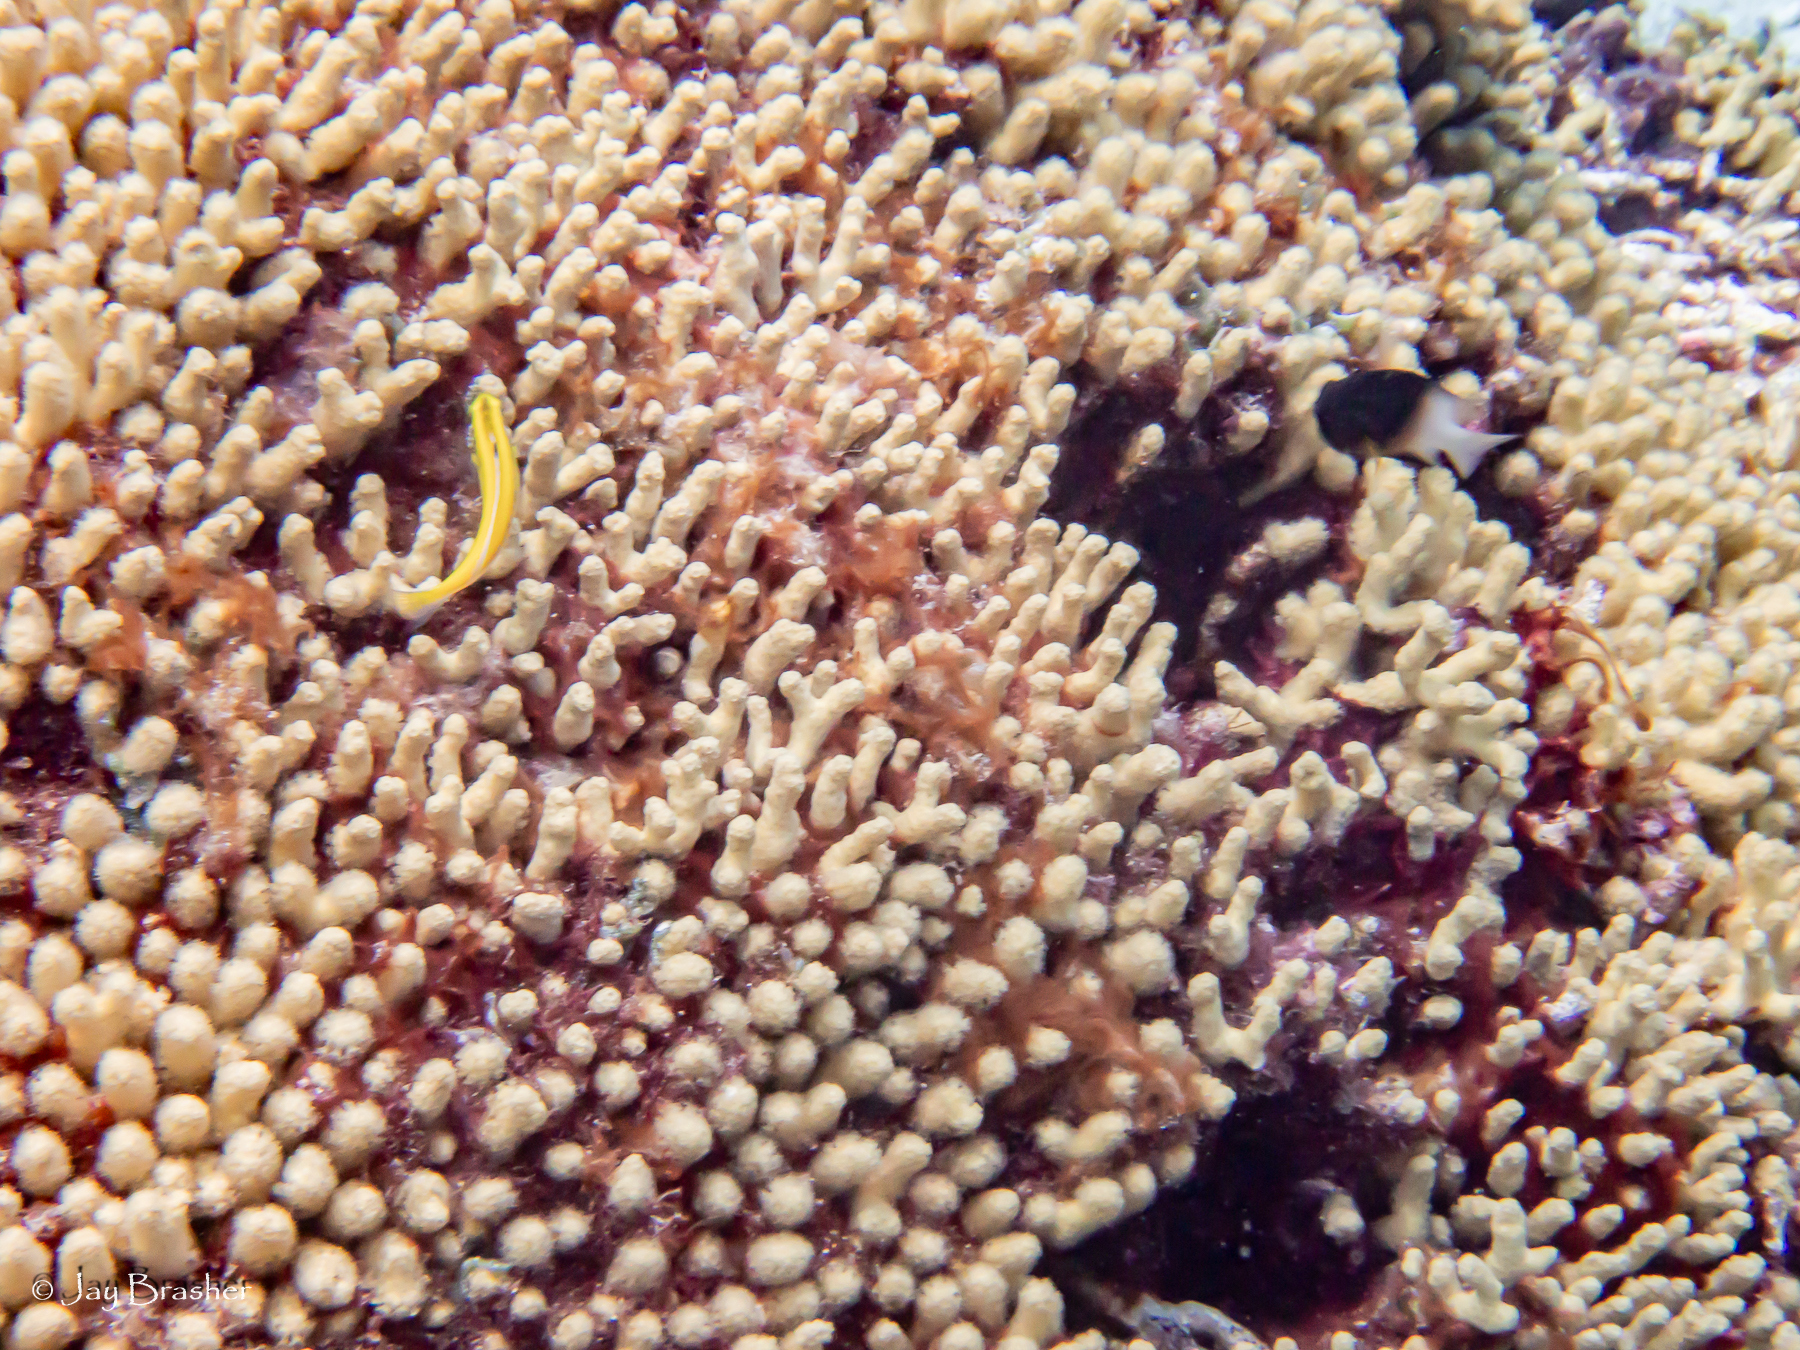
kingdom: Animalia
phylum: Chordata
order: Perciformes
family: Pomacentridae
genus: Stegastes
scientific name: Stegastes partitus
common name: Bicolor damselfish
